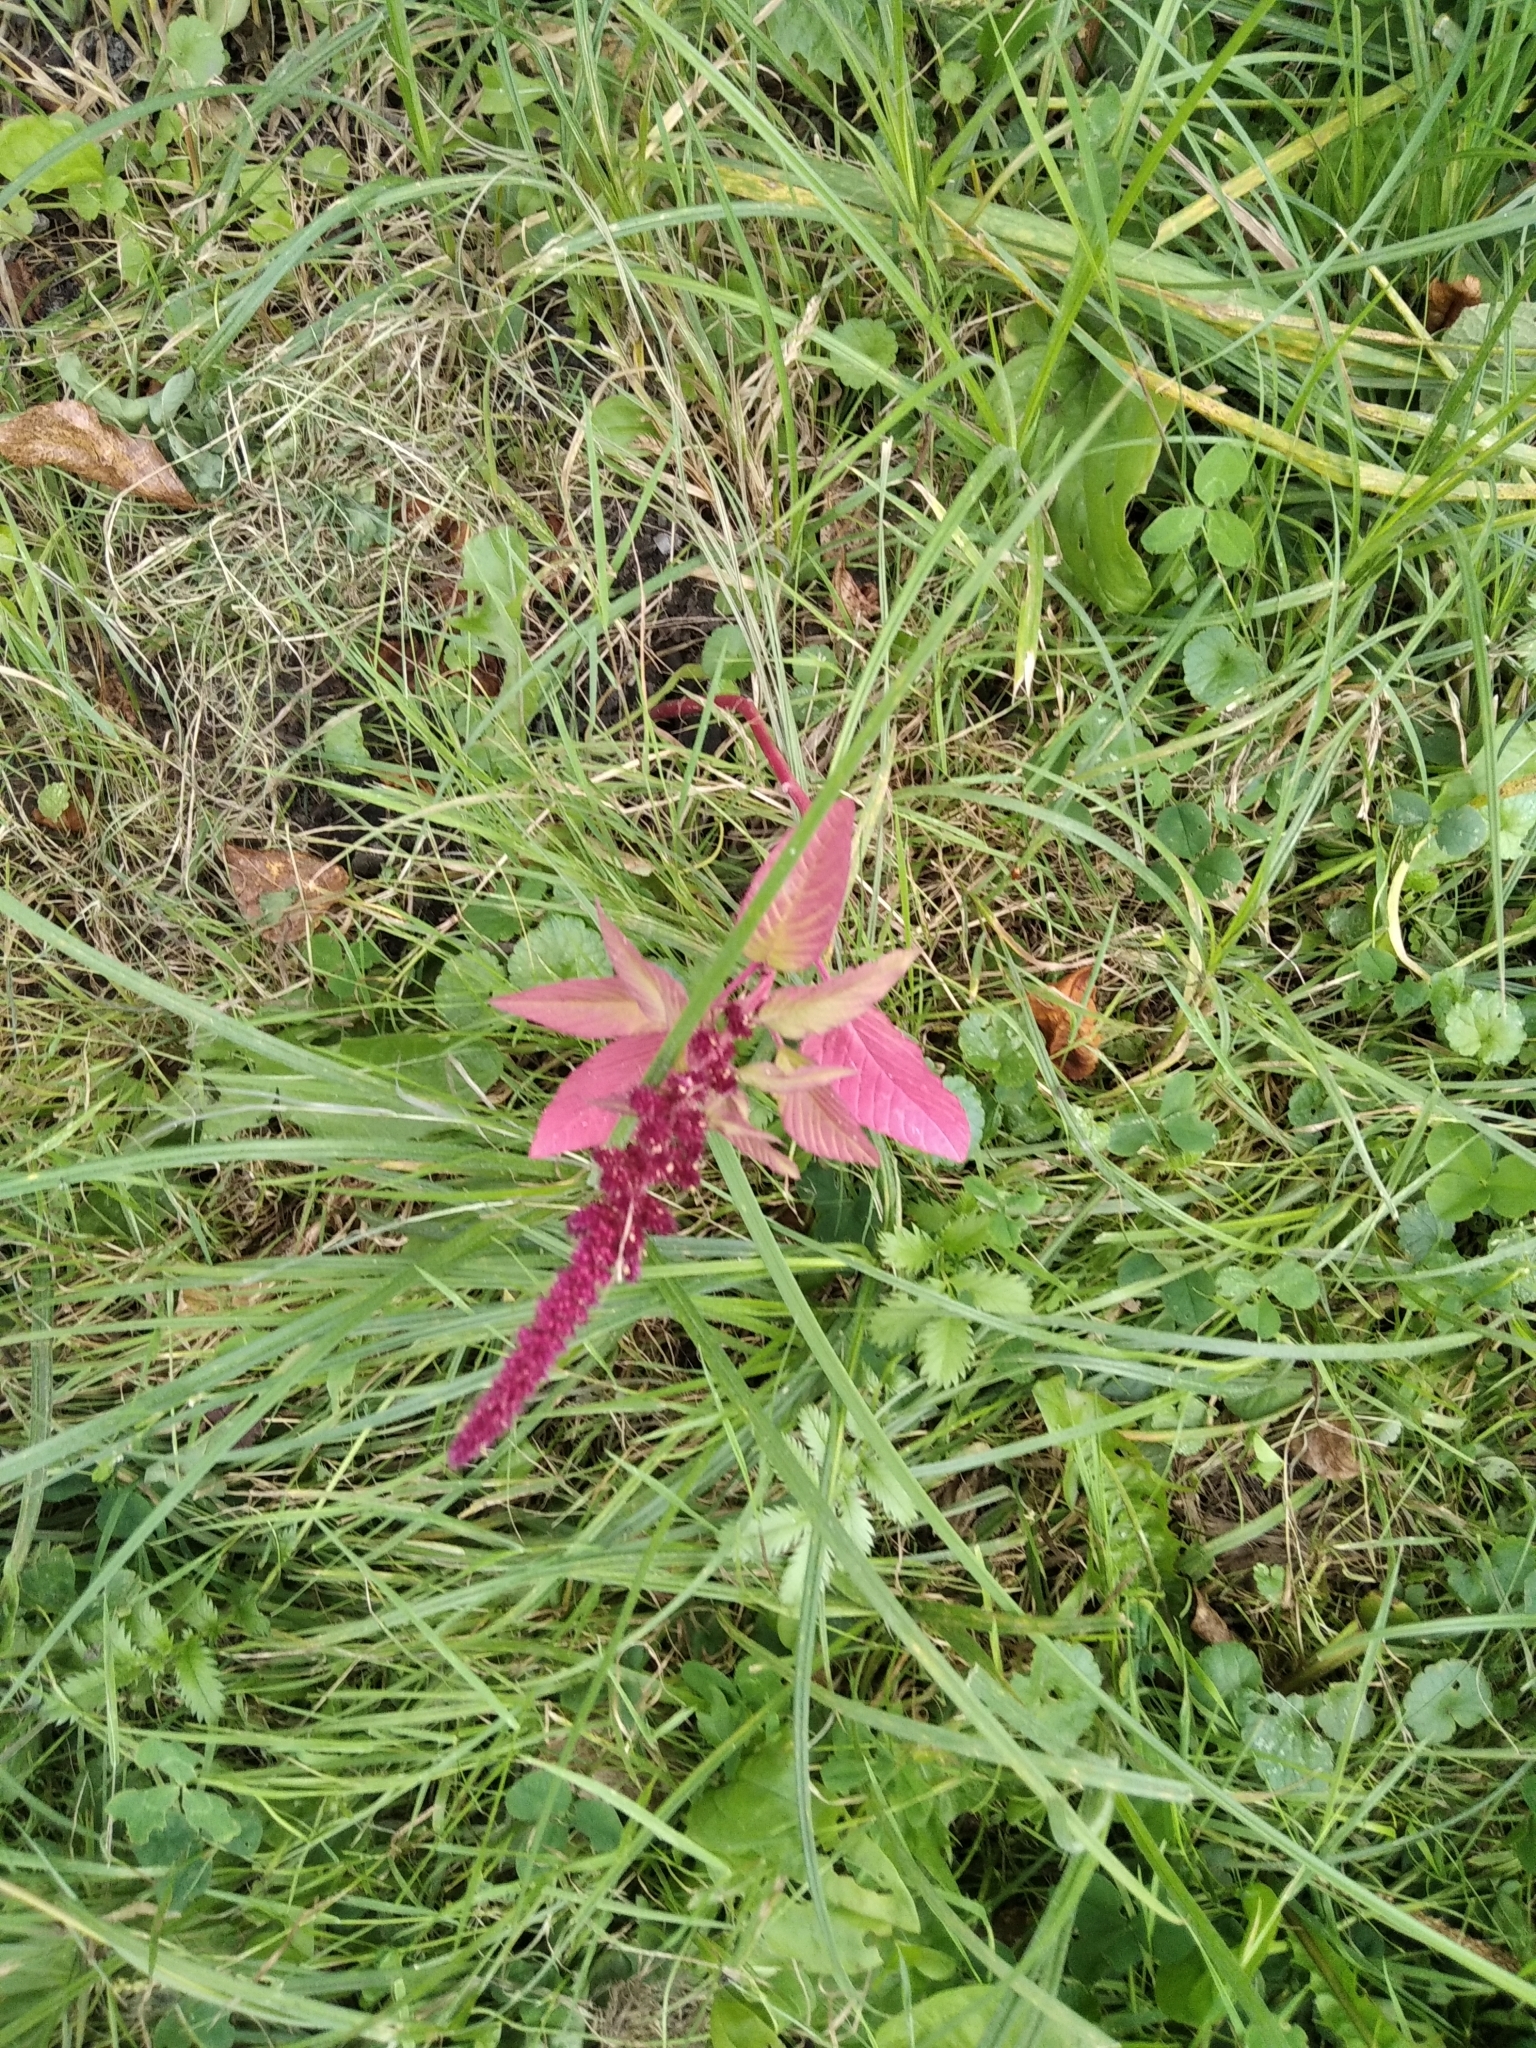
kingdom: Plantae
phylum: Tracheophyta
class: Magnoliopsida
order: Caryophyllales
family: Amaranthaceae
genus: Amaranthus
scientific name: Amaranthus cruentus
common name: Purple amaranth
